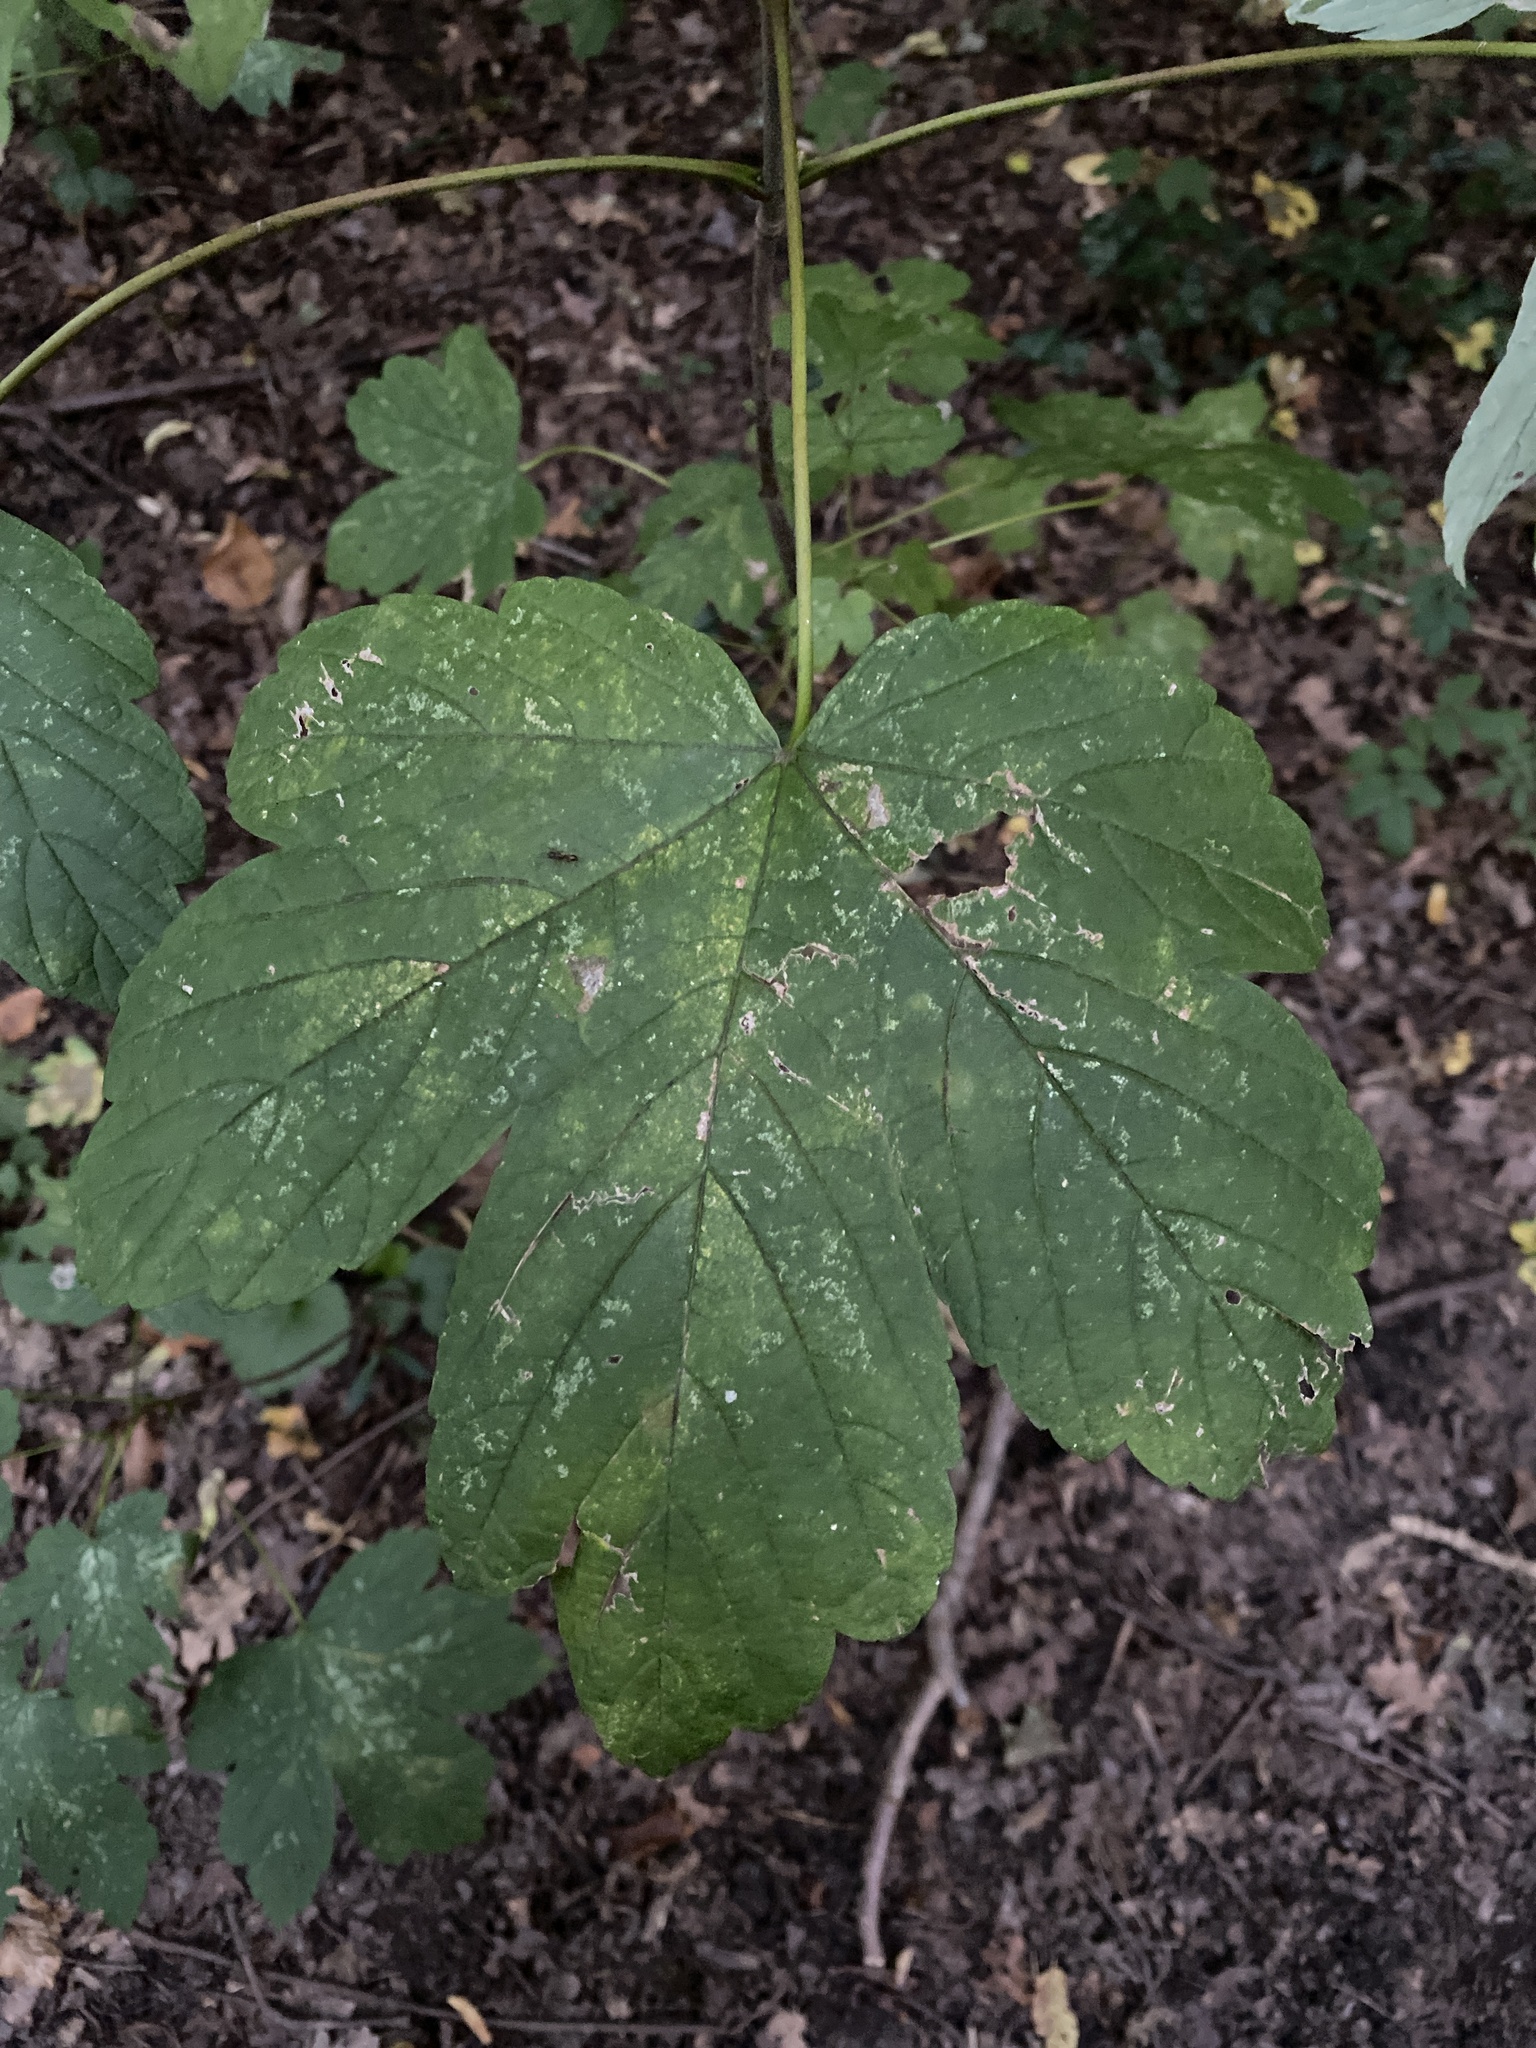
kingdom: Plantae
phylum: Tracheophyta
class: Magnoliopsida
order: Sapindales
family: Sapindaceae
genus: Acer
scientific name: Acer pseudoplatanus
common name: Sycamore
